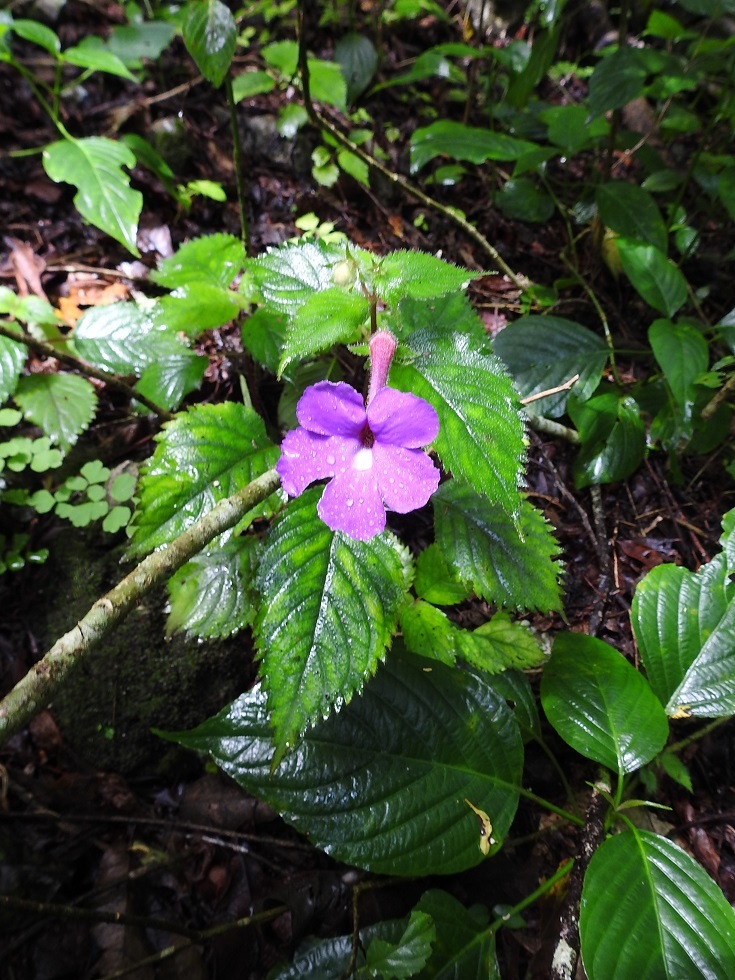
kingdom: Plantae
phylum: Tracheophyta
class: Magnoliopsida
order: Lamiales
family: Gesneriaceae
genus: Achimenes
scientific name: Achimenes grandiflora
